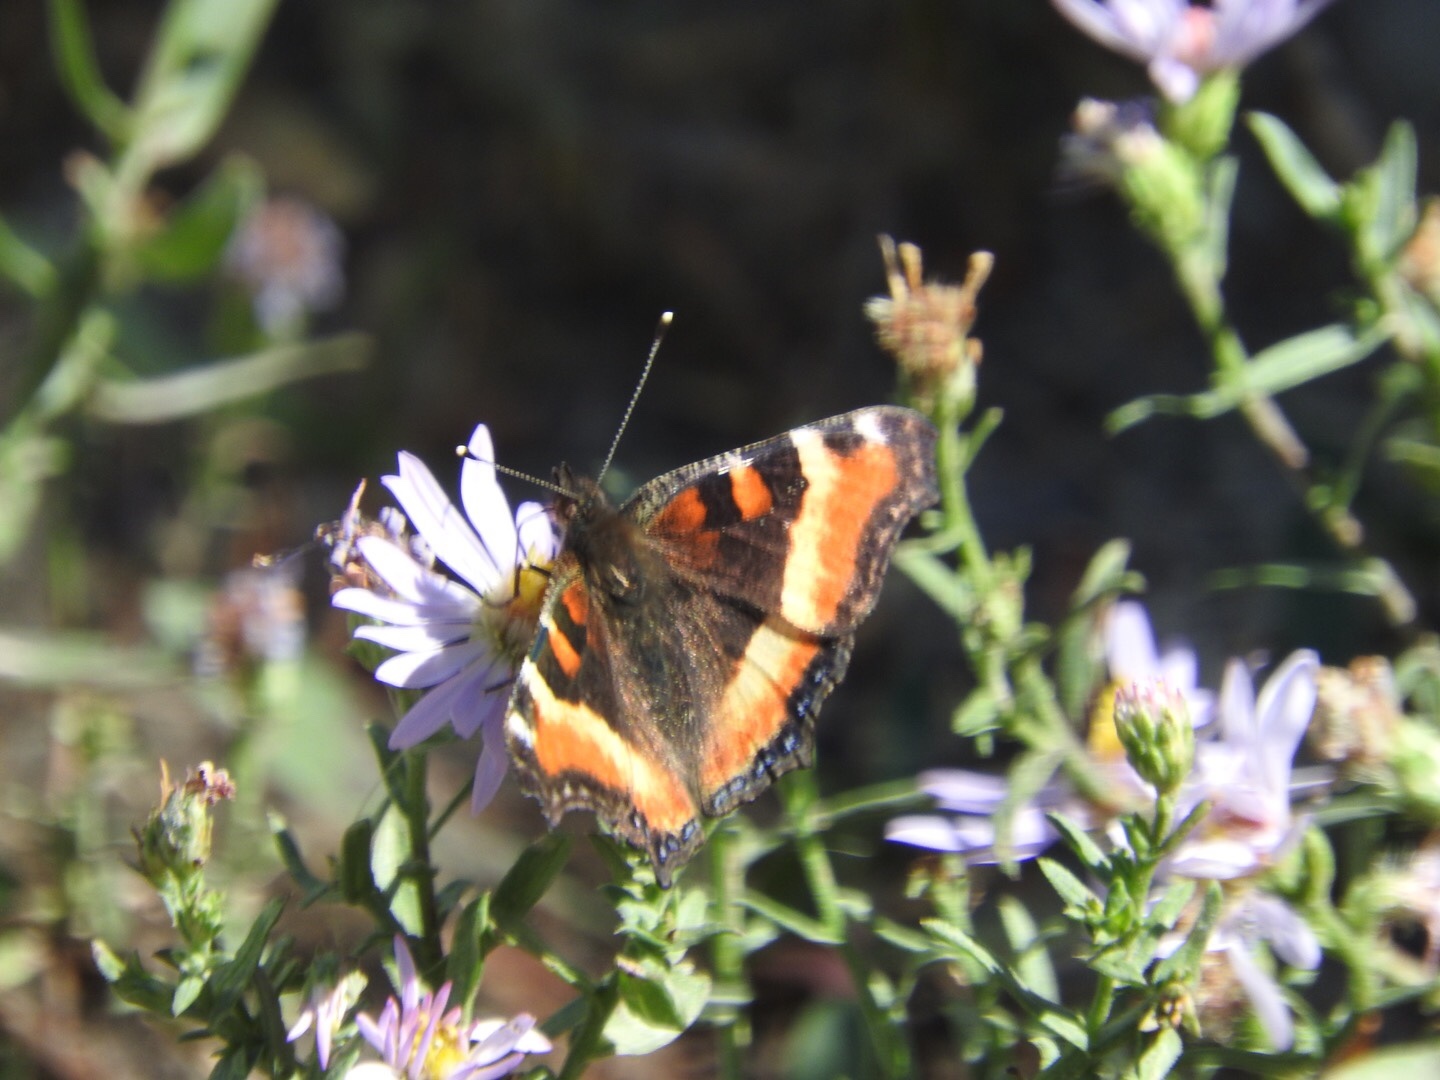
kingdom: Animalia
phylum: Arthropoda
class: Insecta
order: Lepidoptera
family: Nymphalidae
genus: Aglais
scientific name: Aglais milberti
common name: Milbert's tortoiseshell
